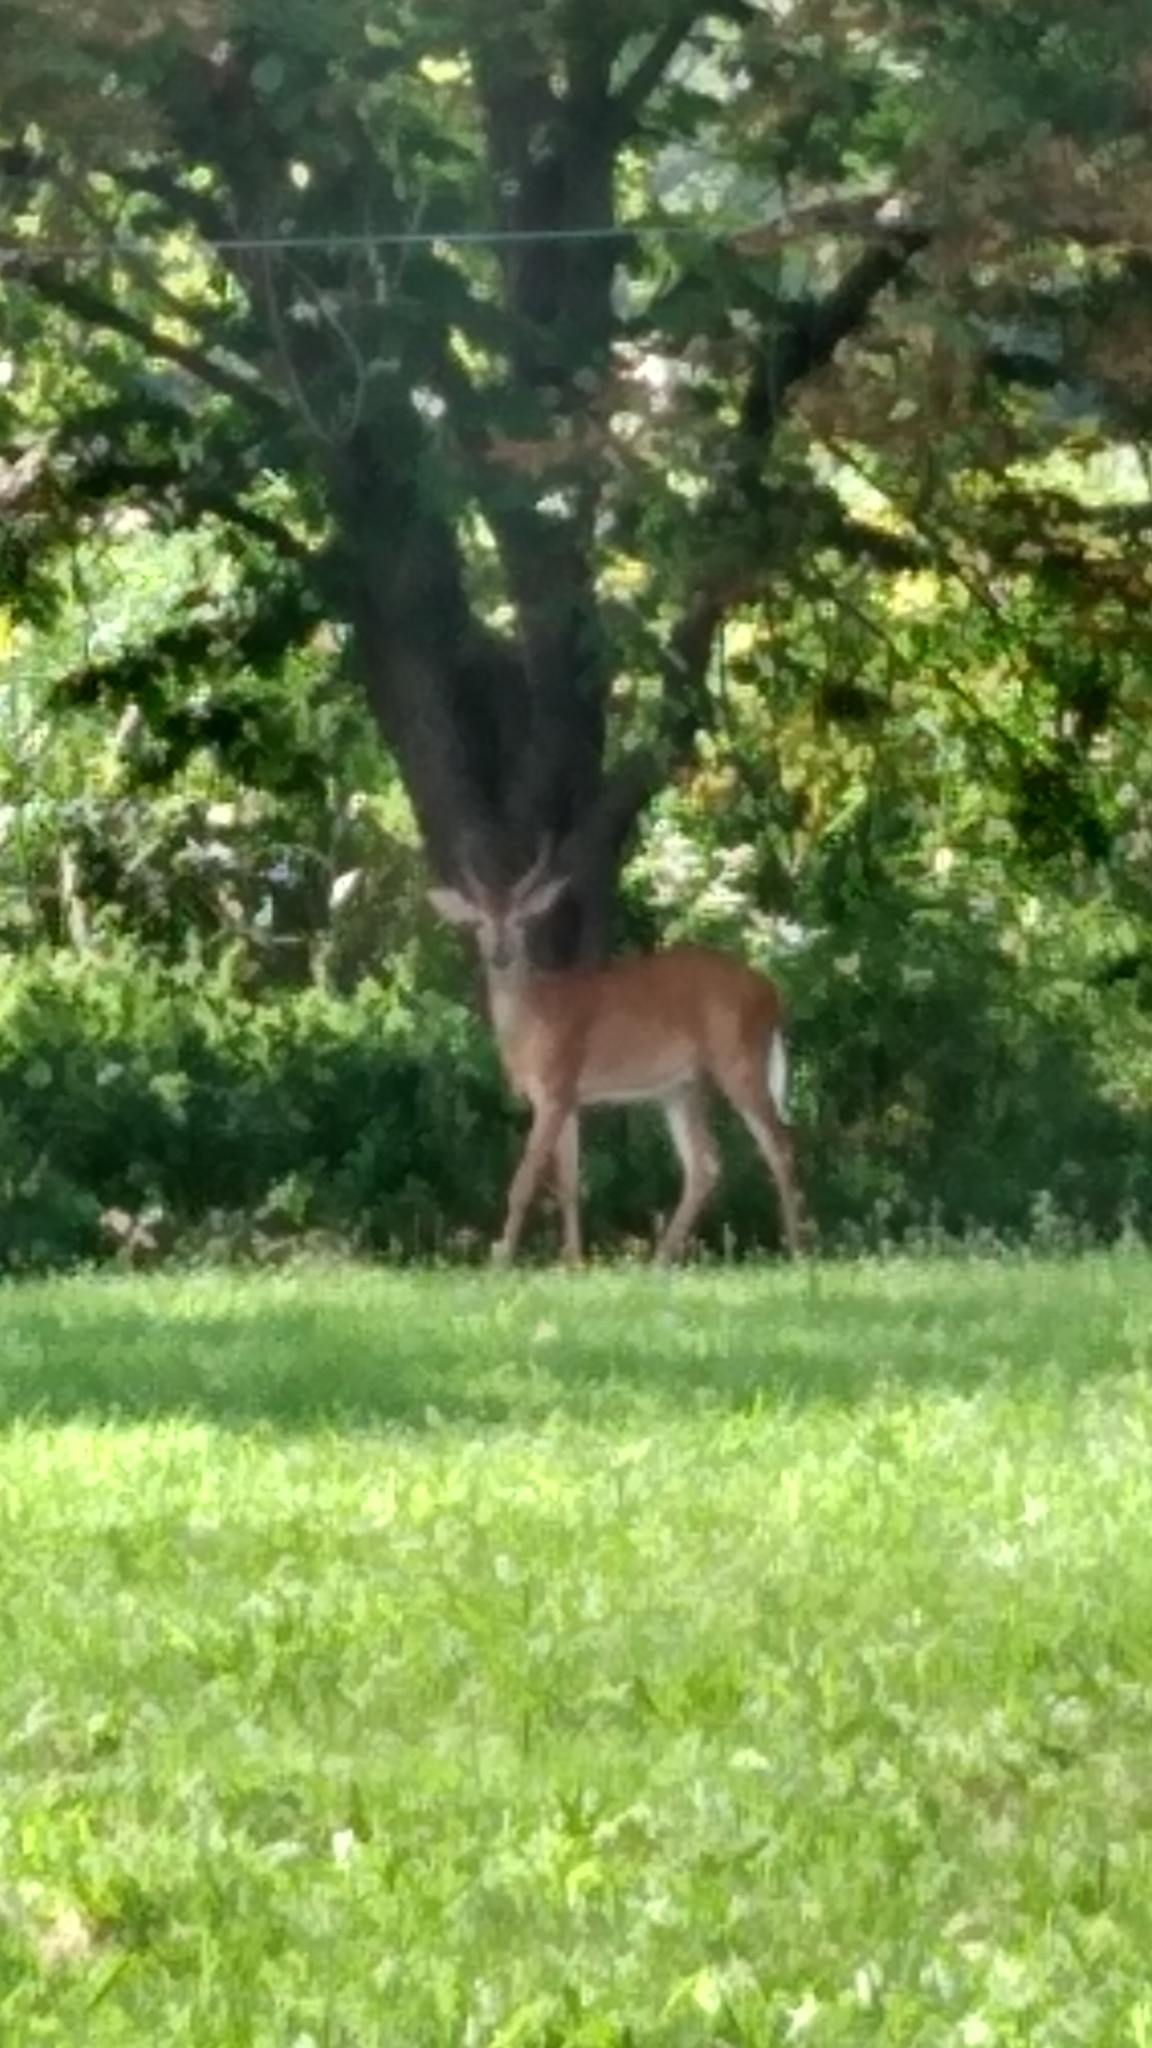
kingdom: Animalia
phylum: Chordata
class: Mammalia
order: Artiodactyla
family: Cervidae
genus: Odocoileus
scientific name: Odocoileus virginianus
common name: White-tailed deer
